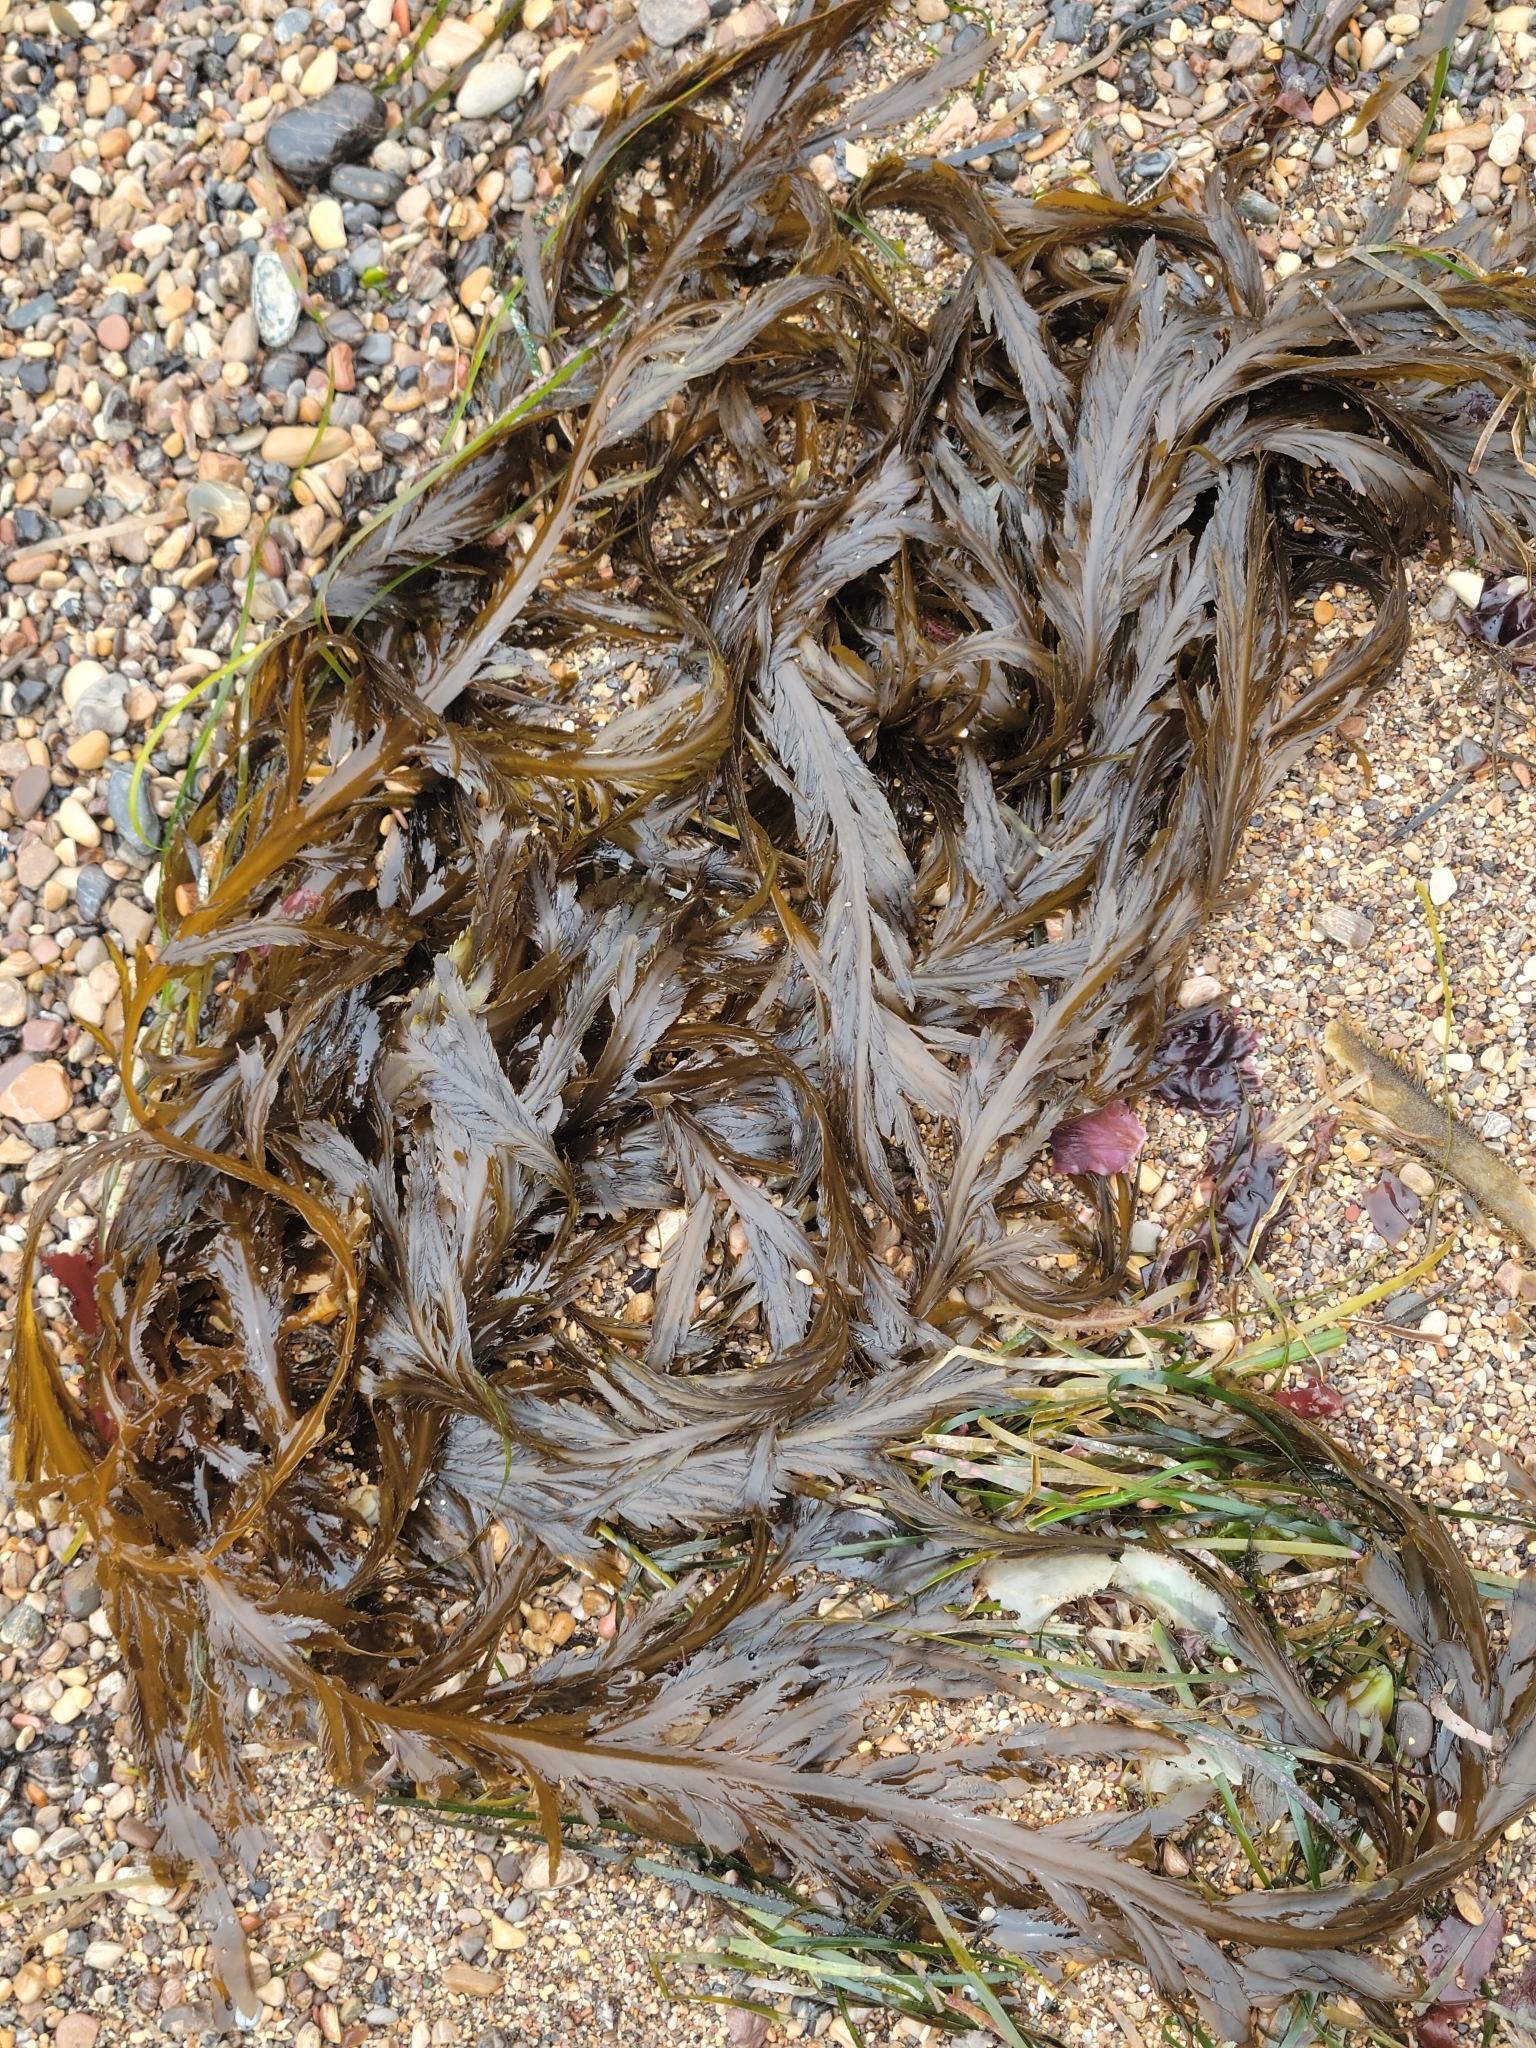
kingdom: Chromista
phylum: Ochrophyta
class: Phaeophyceae
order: Desmarestiales
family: Desmarestiaceae
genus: Desmarestia
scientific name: Desmarestia ligulata
